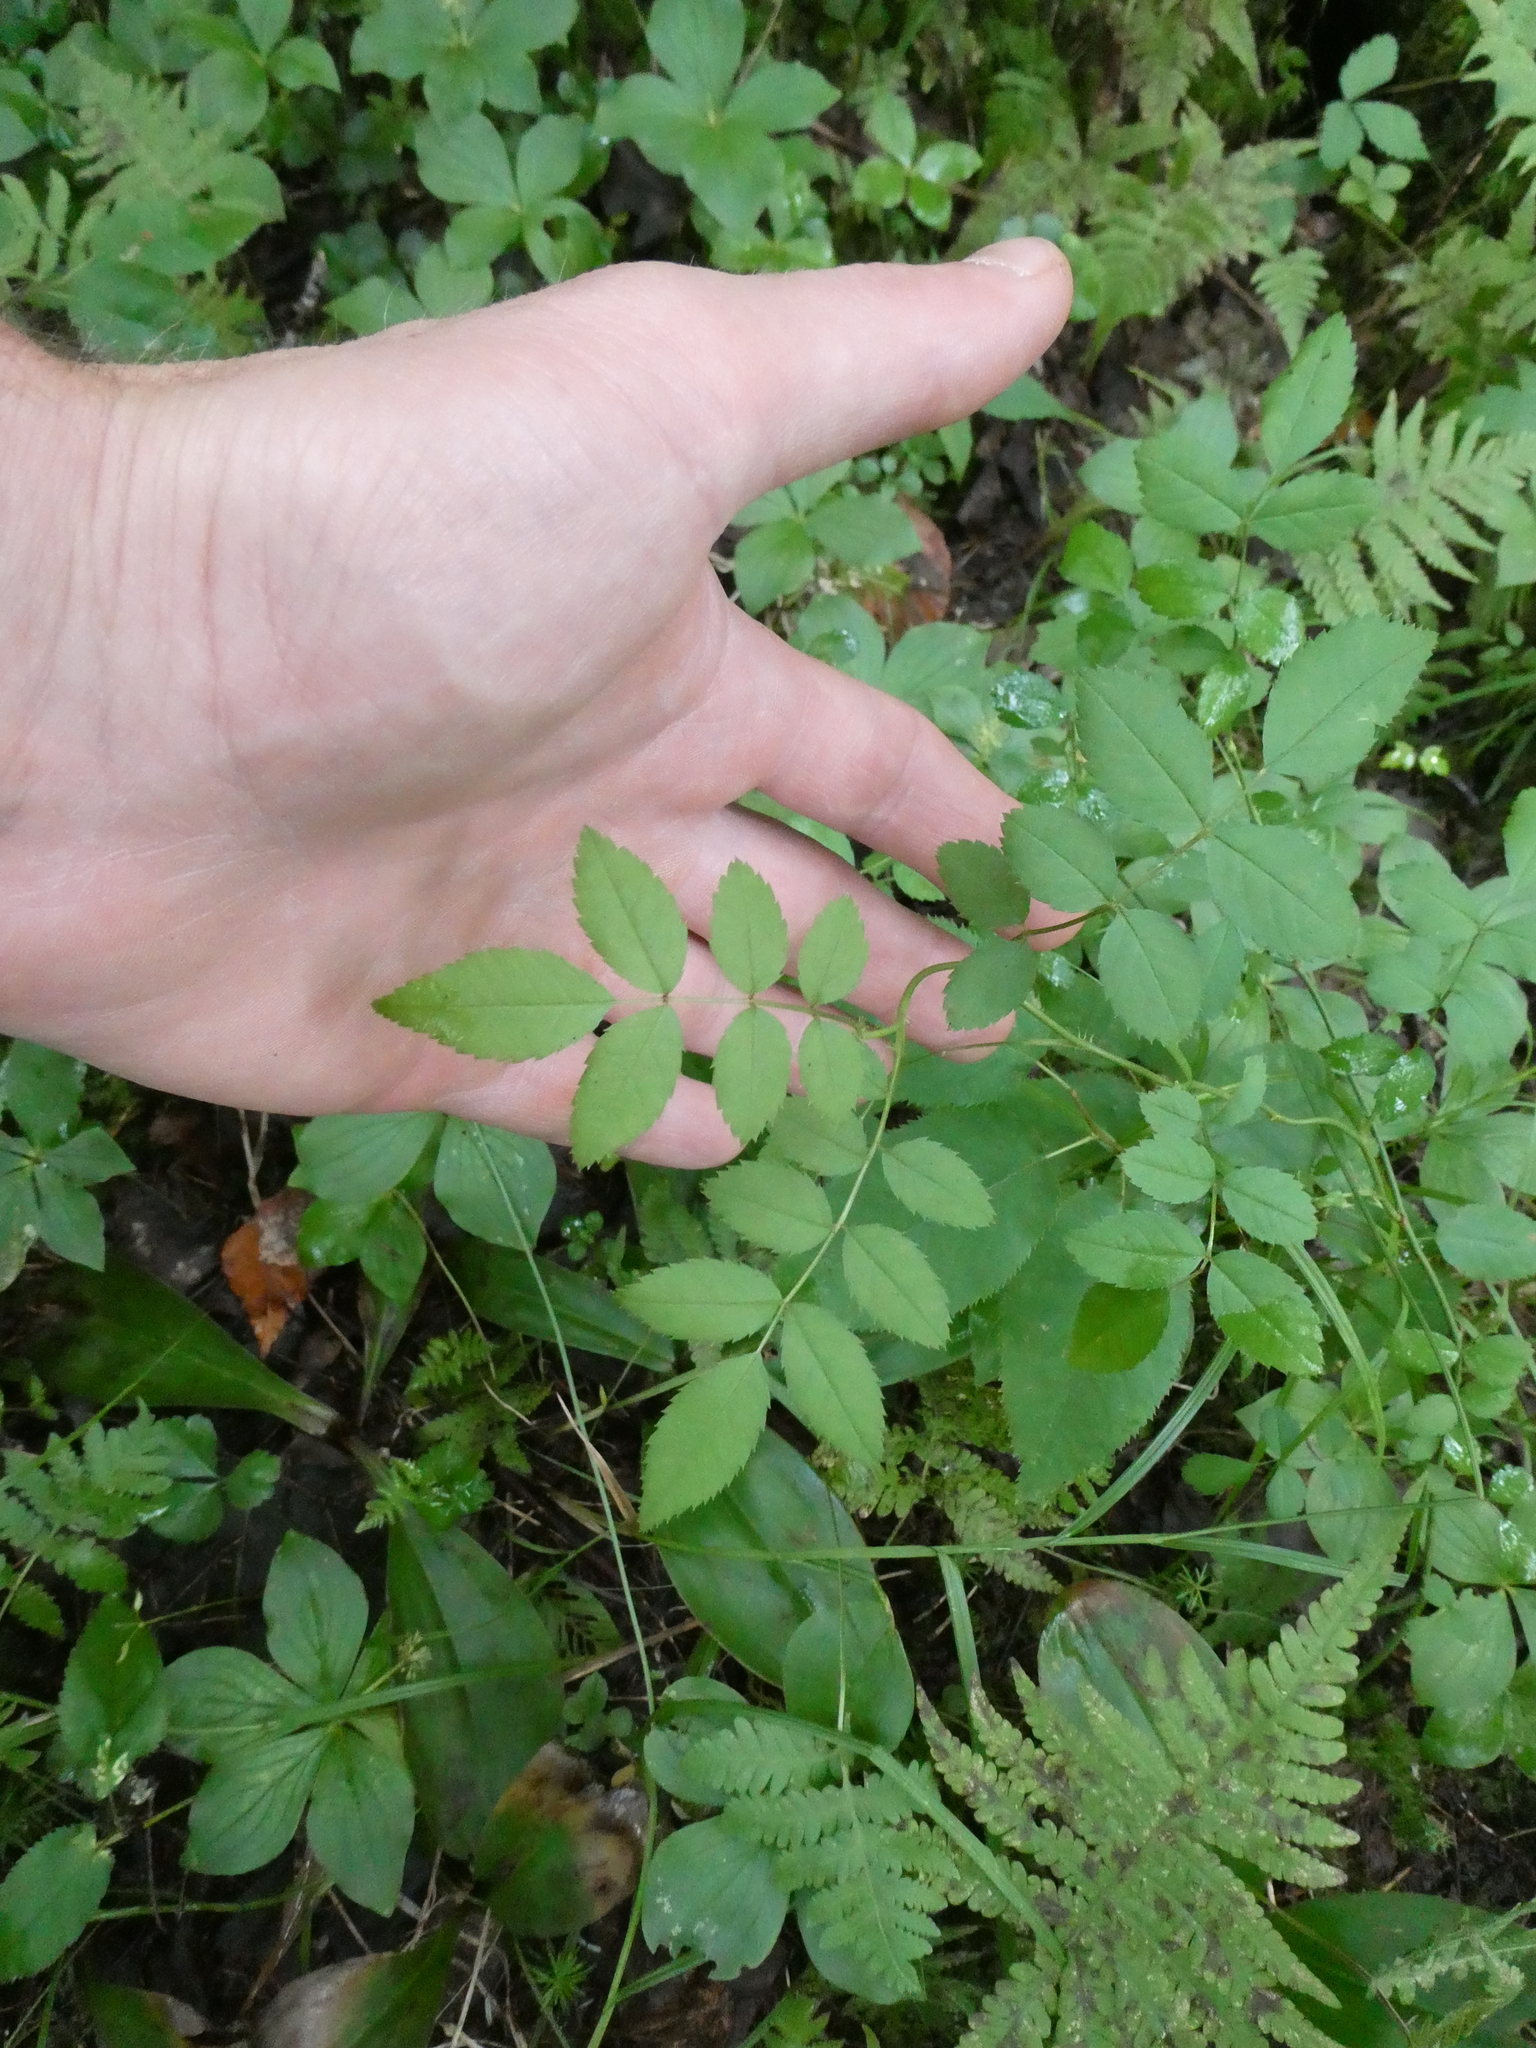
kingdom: Plantae
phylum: Tracheophyta
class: Magnoliopsida
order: Rosales
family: Rosaceae
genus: Rosa
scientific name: Rosa multiflora
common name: Multiflora rose
